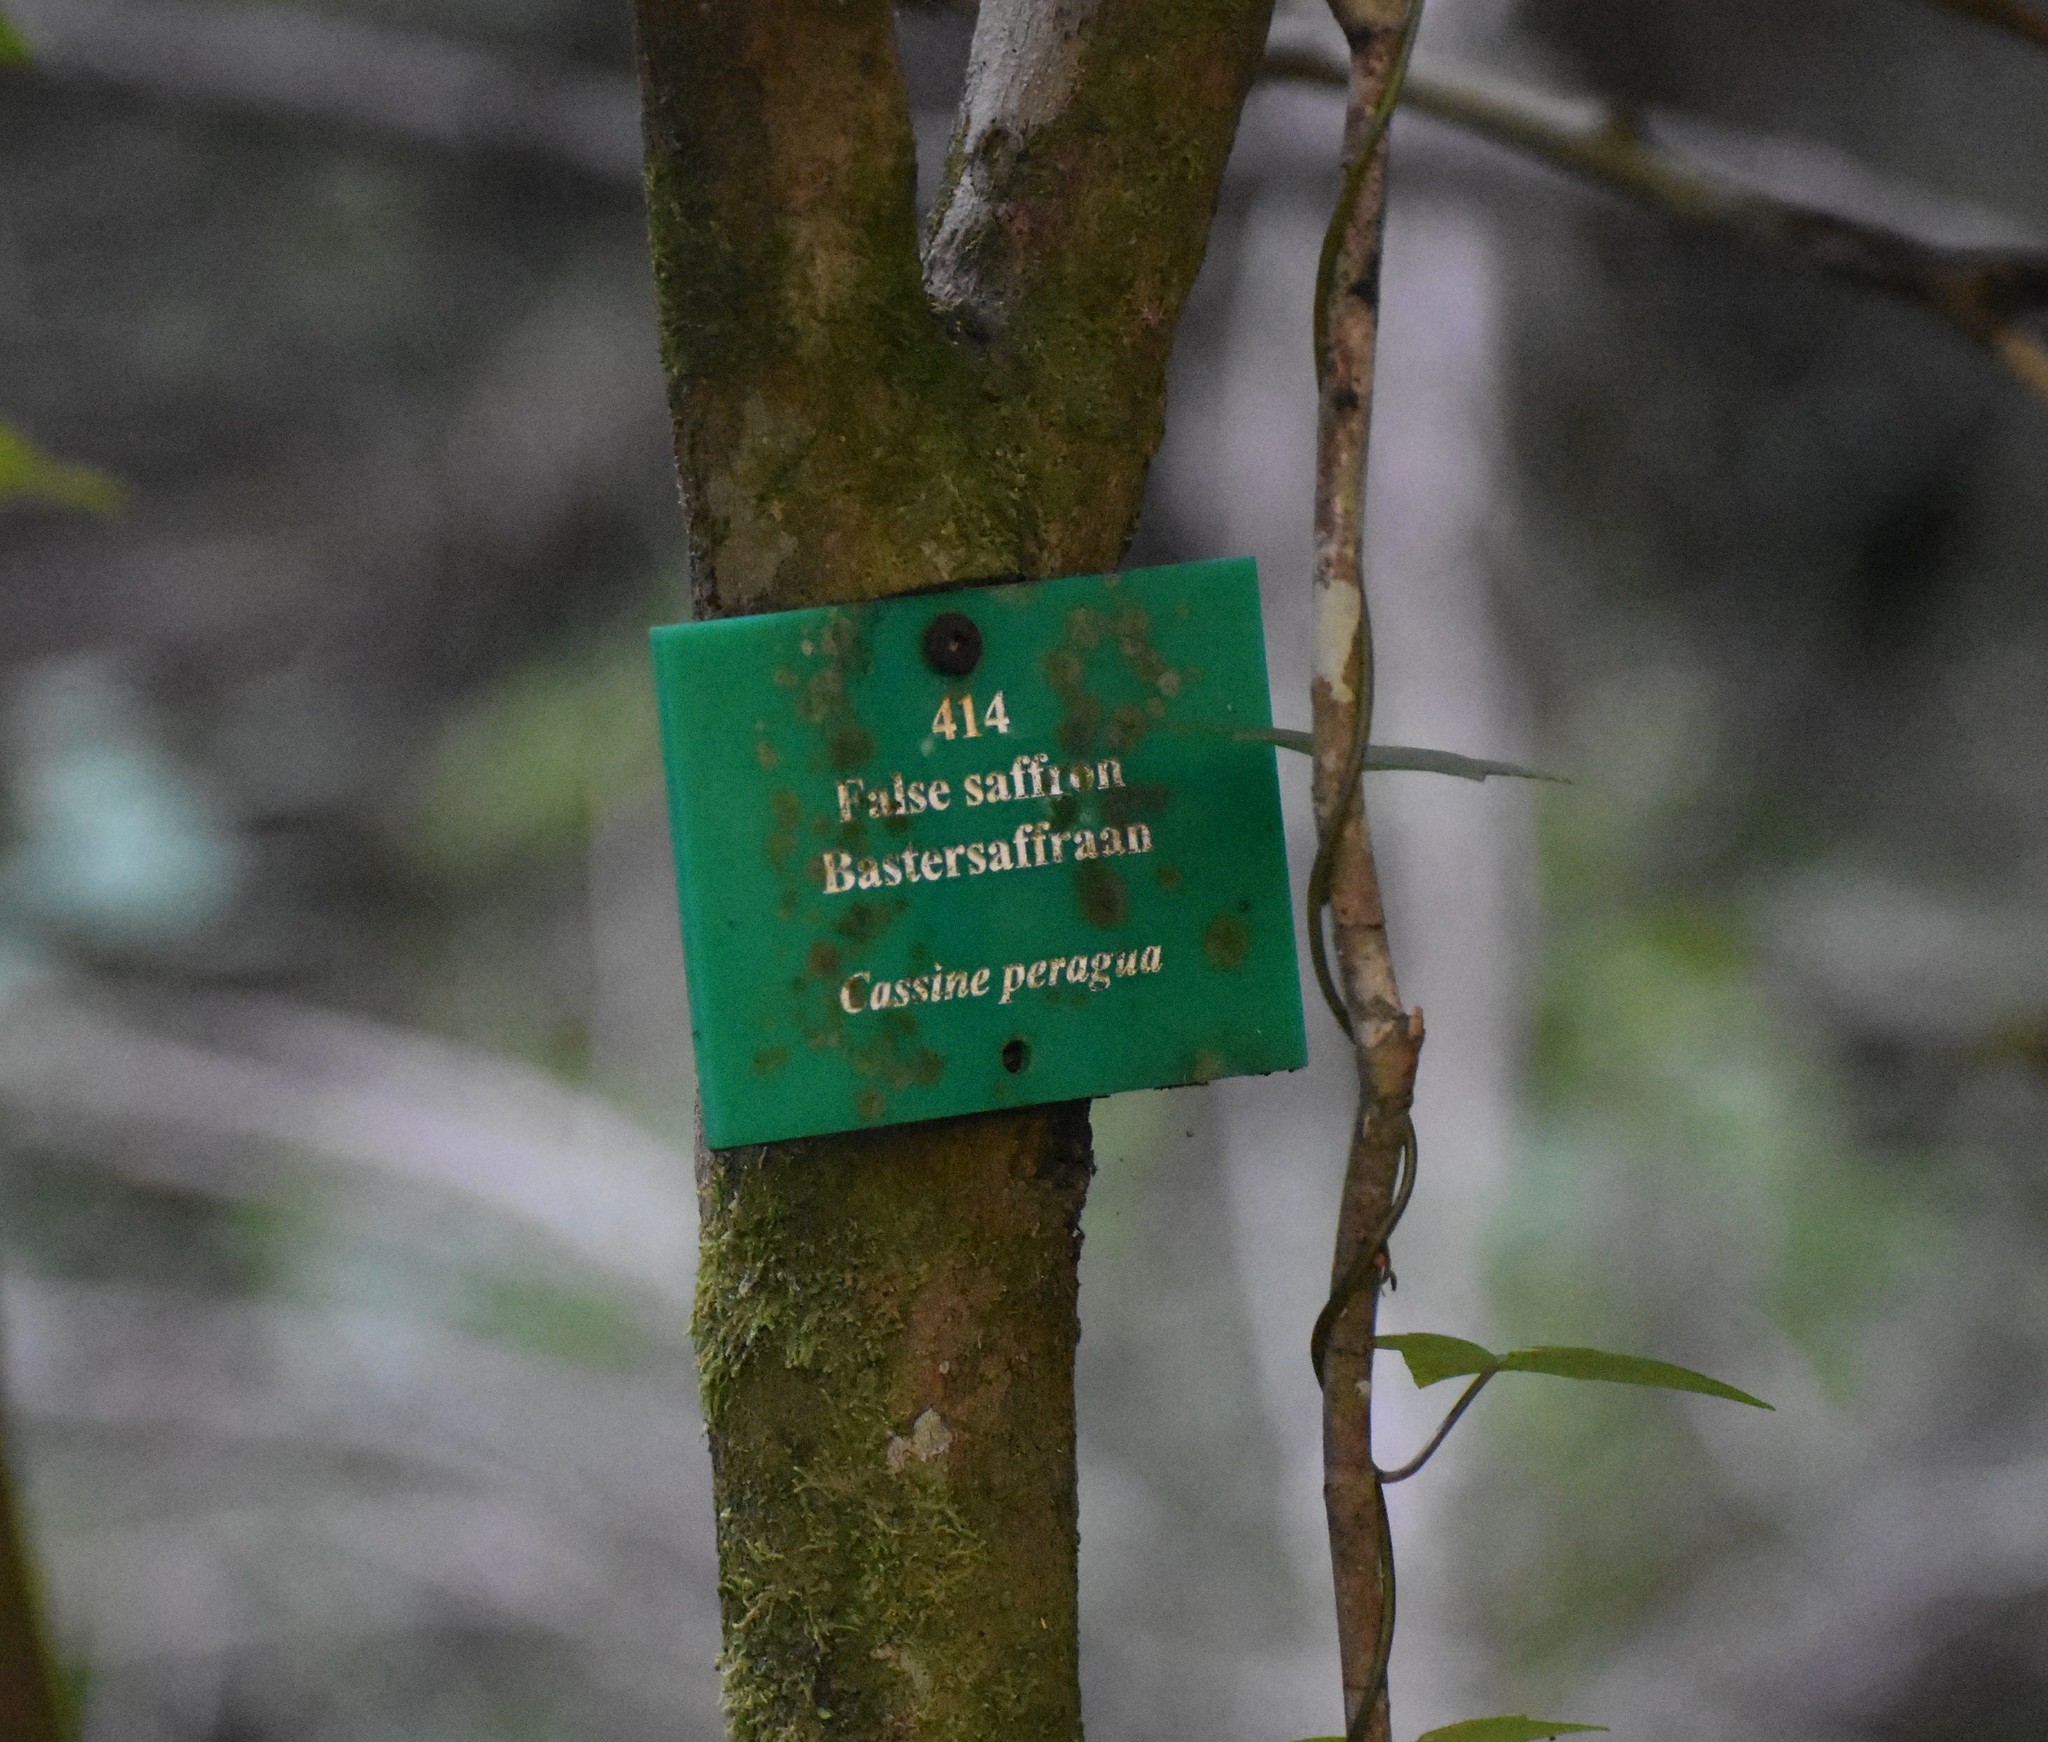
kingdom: Plantae
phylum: Tracheophyta
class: Magnoliopsida
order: Celastrales
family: Celastraceae
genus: Cassine
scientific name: Cassine peragua
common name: Cape saffron
